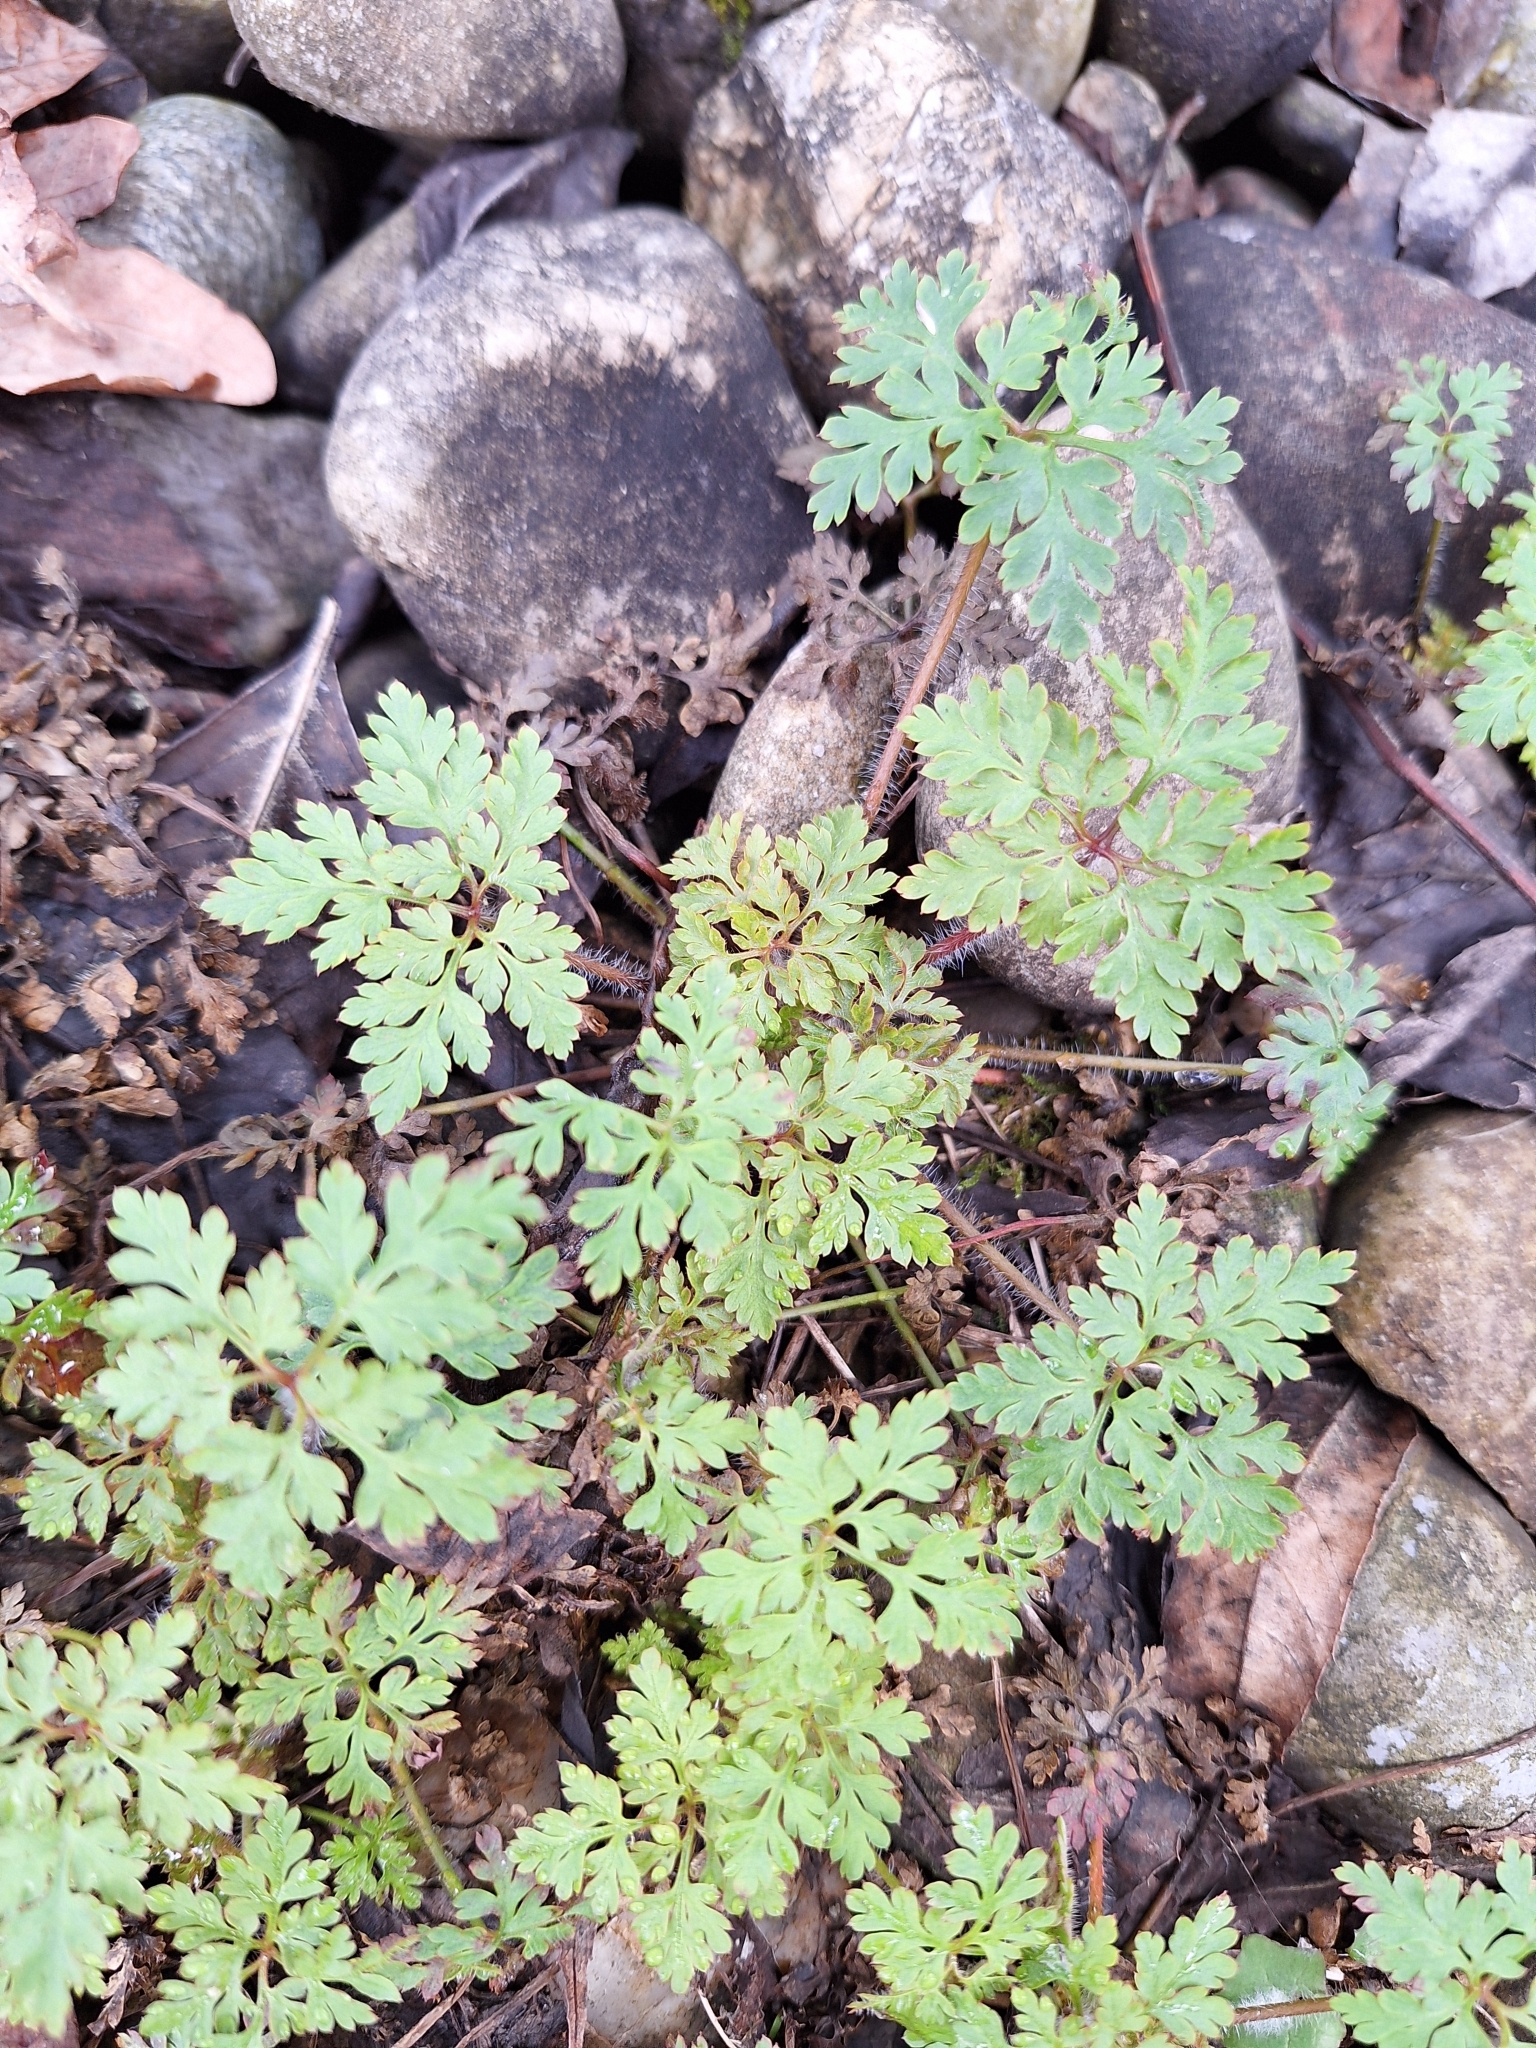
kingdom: Plantae
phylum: Tracheophyta
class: Magnoliopsida
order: Geraniales
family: Geraniaceae
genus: Geranium
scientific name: Geranium robertianum
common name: Herb-robert
